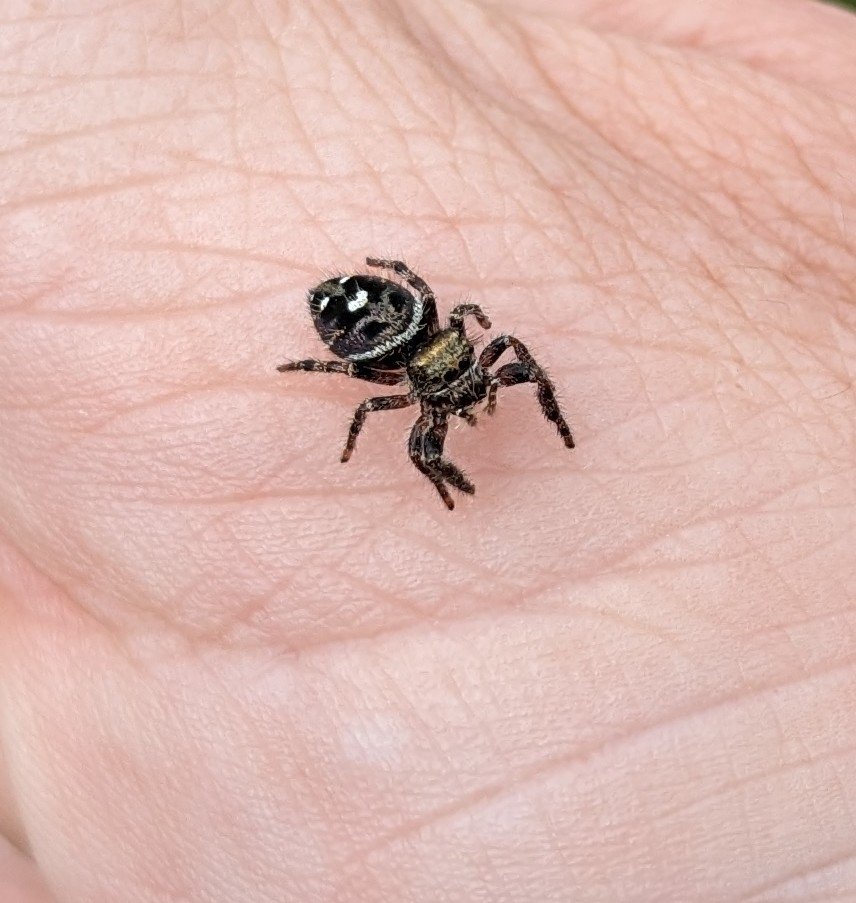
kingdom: Animalia
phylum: Arthropoda
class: Arachnida
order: Araneae
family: Salticidae
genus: Phidippus
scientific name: Phidippus audax
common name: Bold jumper
